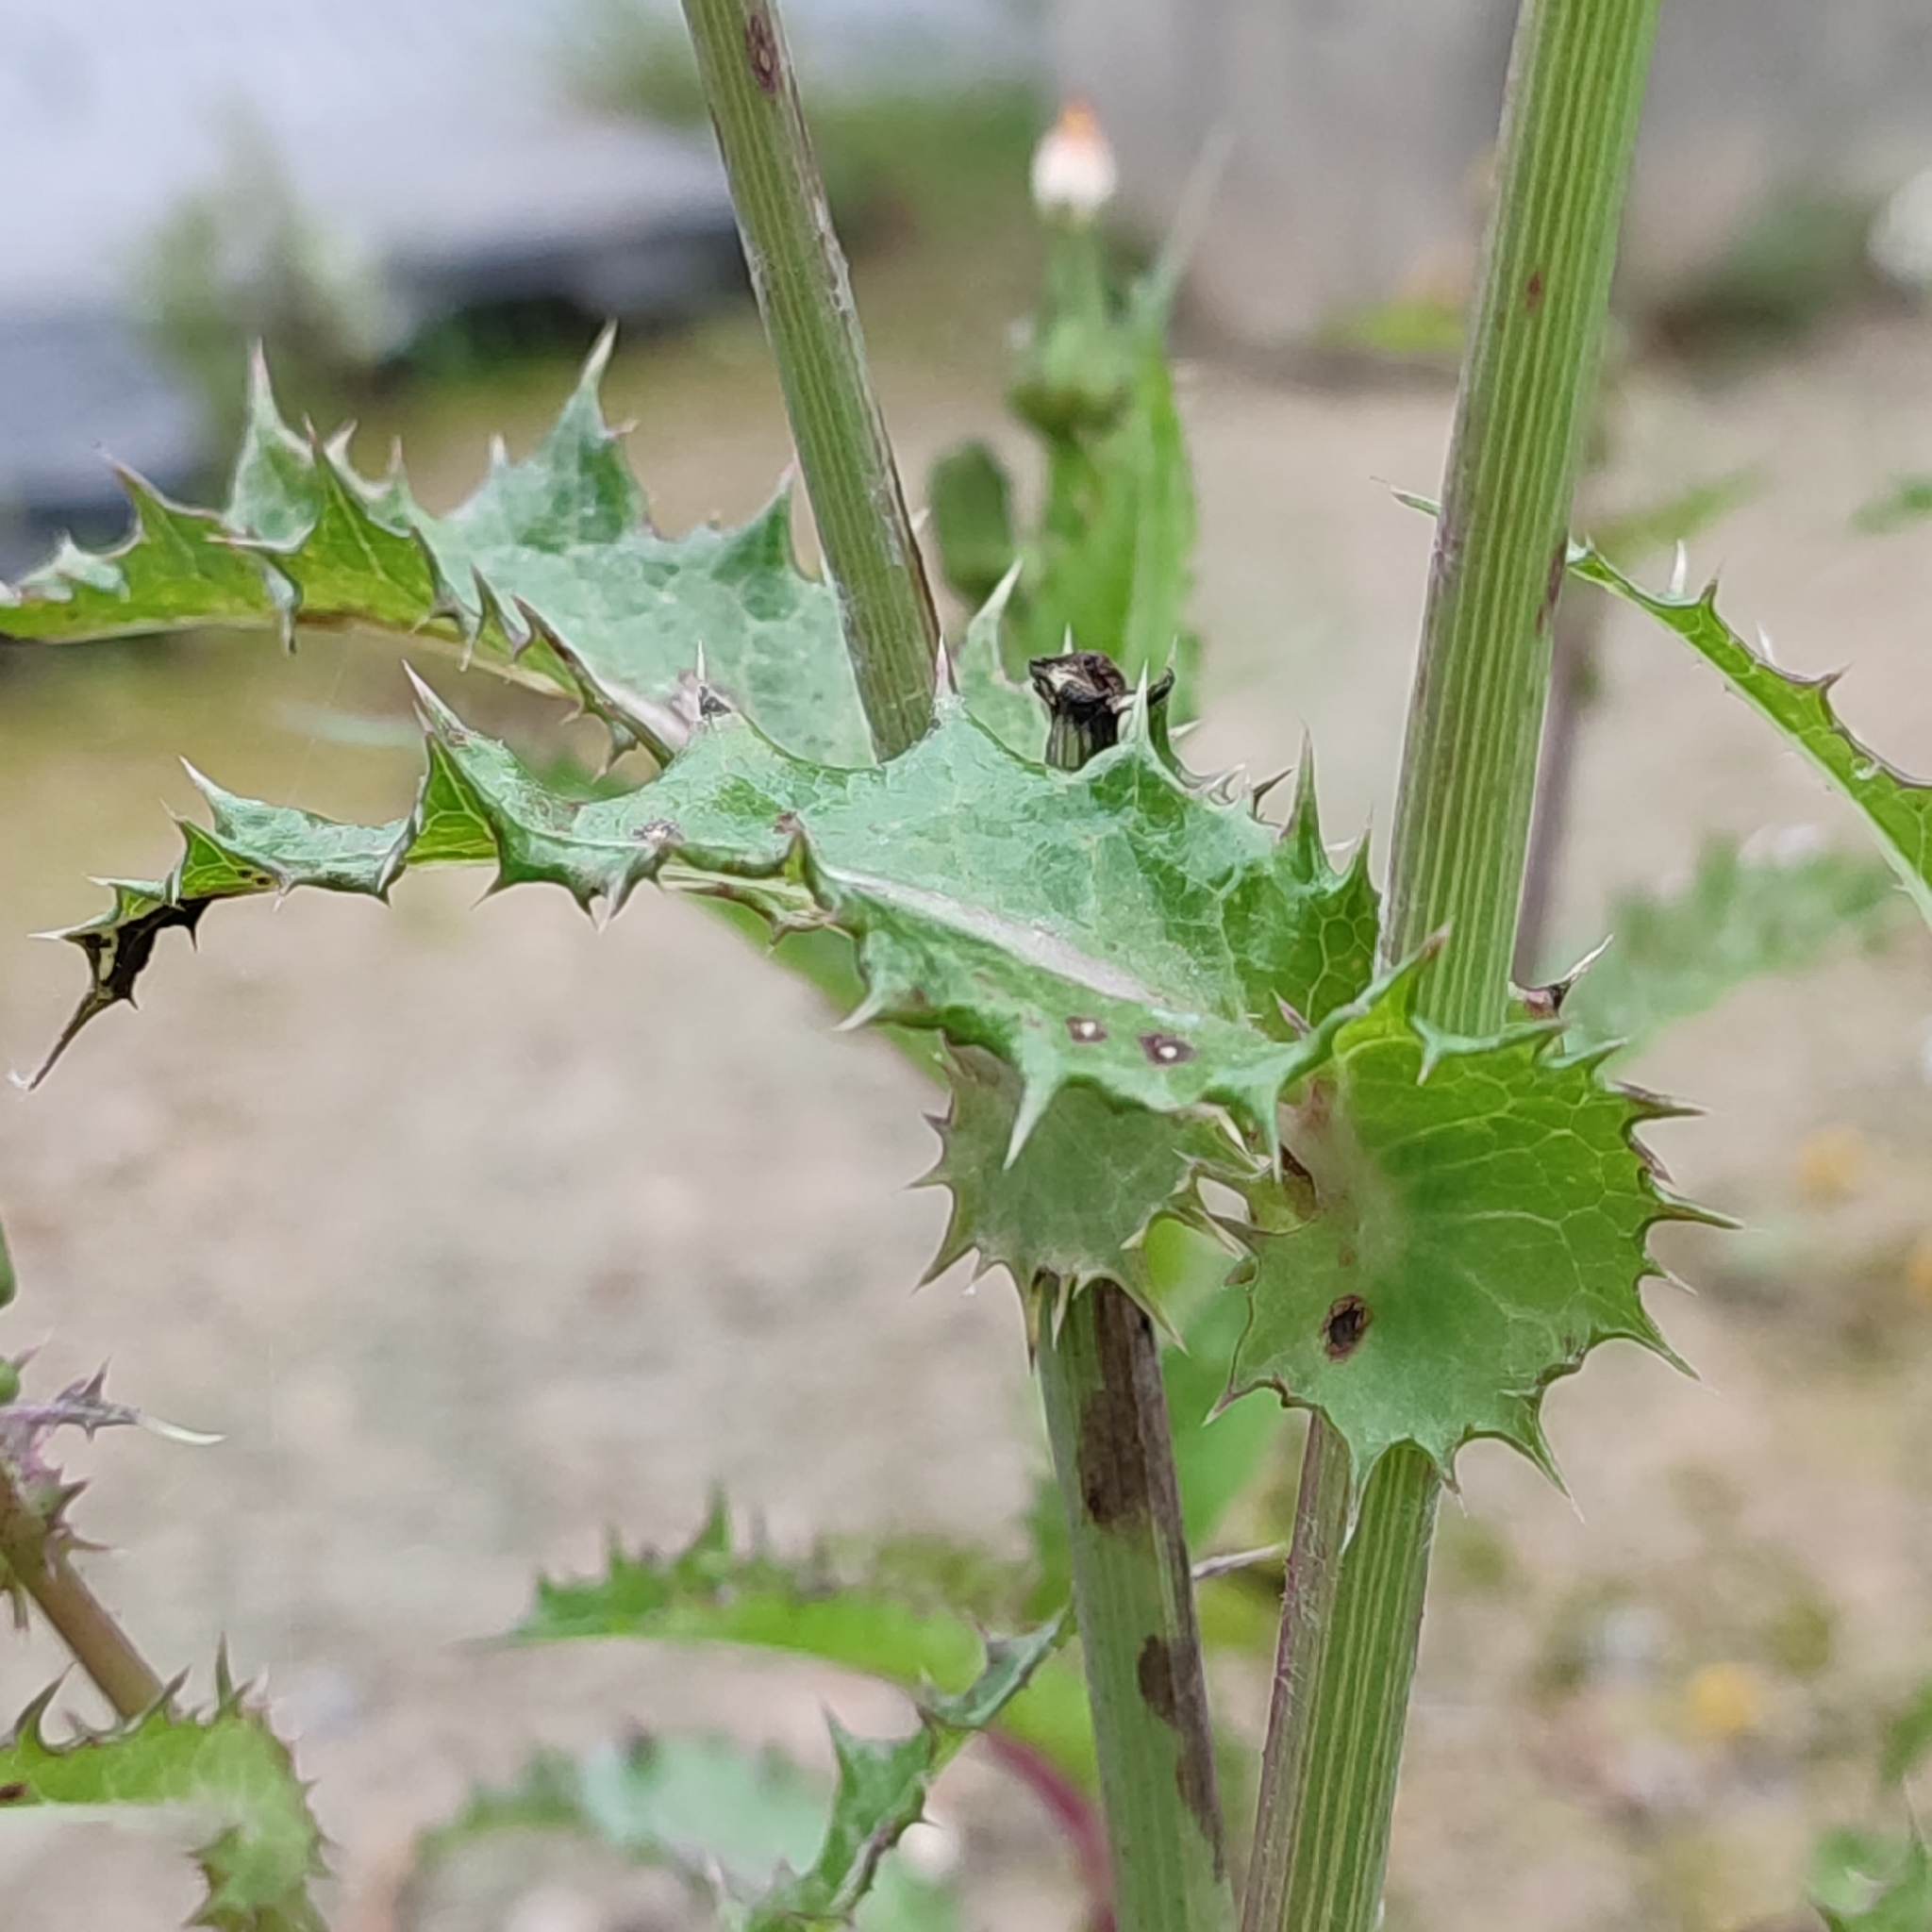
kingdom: Plantae
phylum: Tracheophyta
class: Magnoliopsida
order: Asterales
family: Asteraceae
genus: Sonchus
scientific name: Sonchus asper
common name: Prickly sow-thistle
